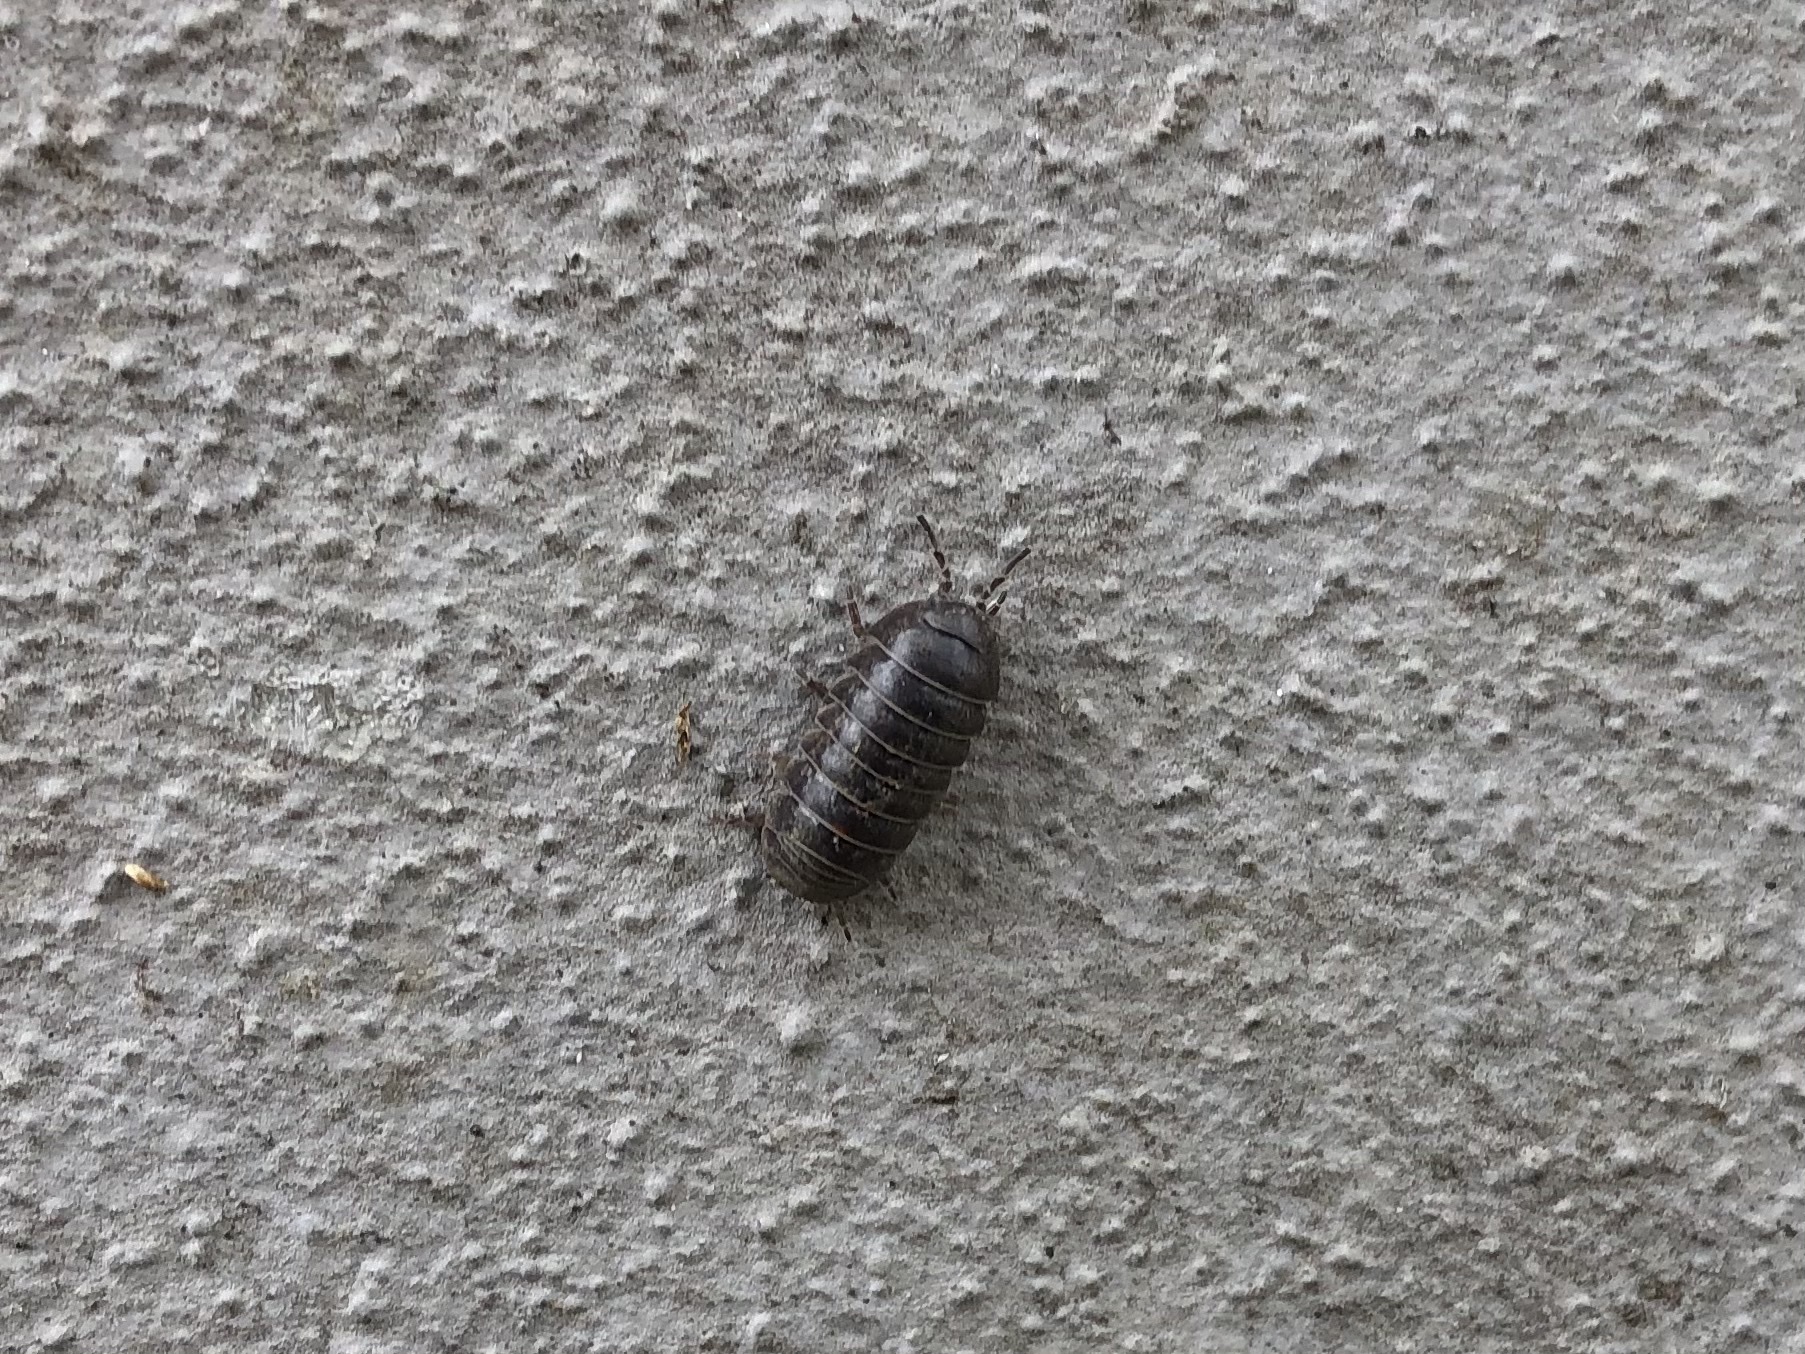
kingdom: Animalia
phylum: Arthropoda
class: Malacostraca
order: Isopoda
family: Armadillidiidae
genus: Armadillidium
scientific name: Armadillidium vulgare
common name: Common pill woodlouse
